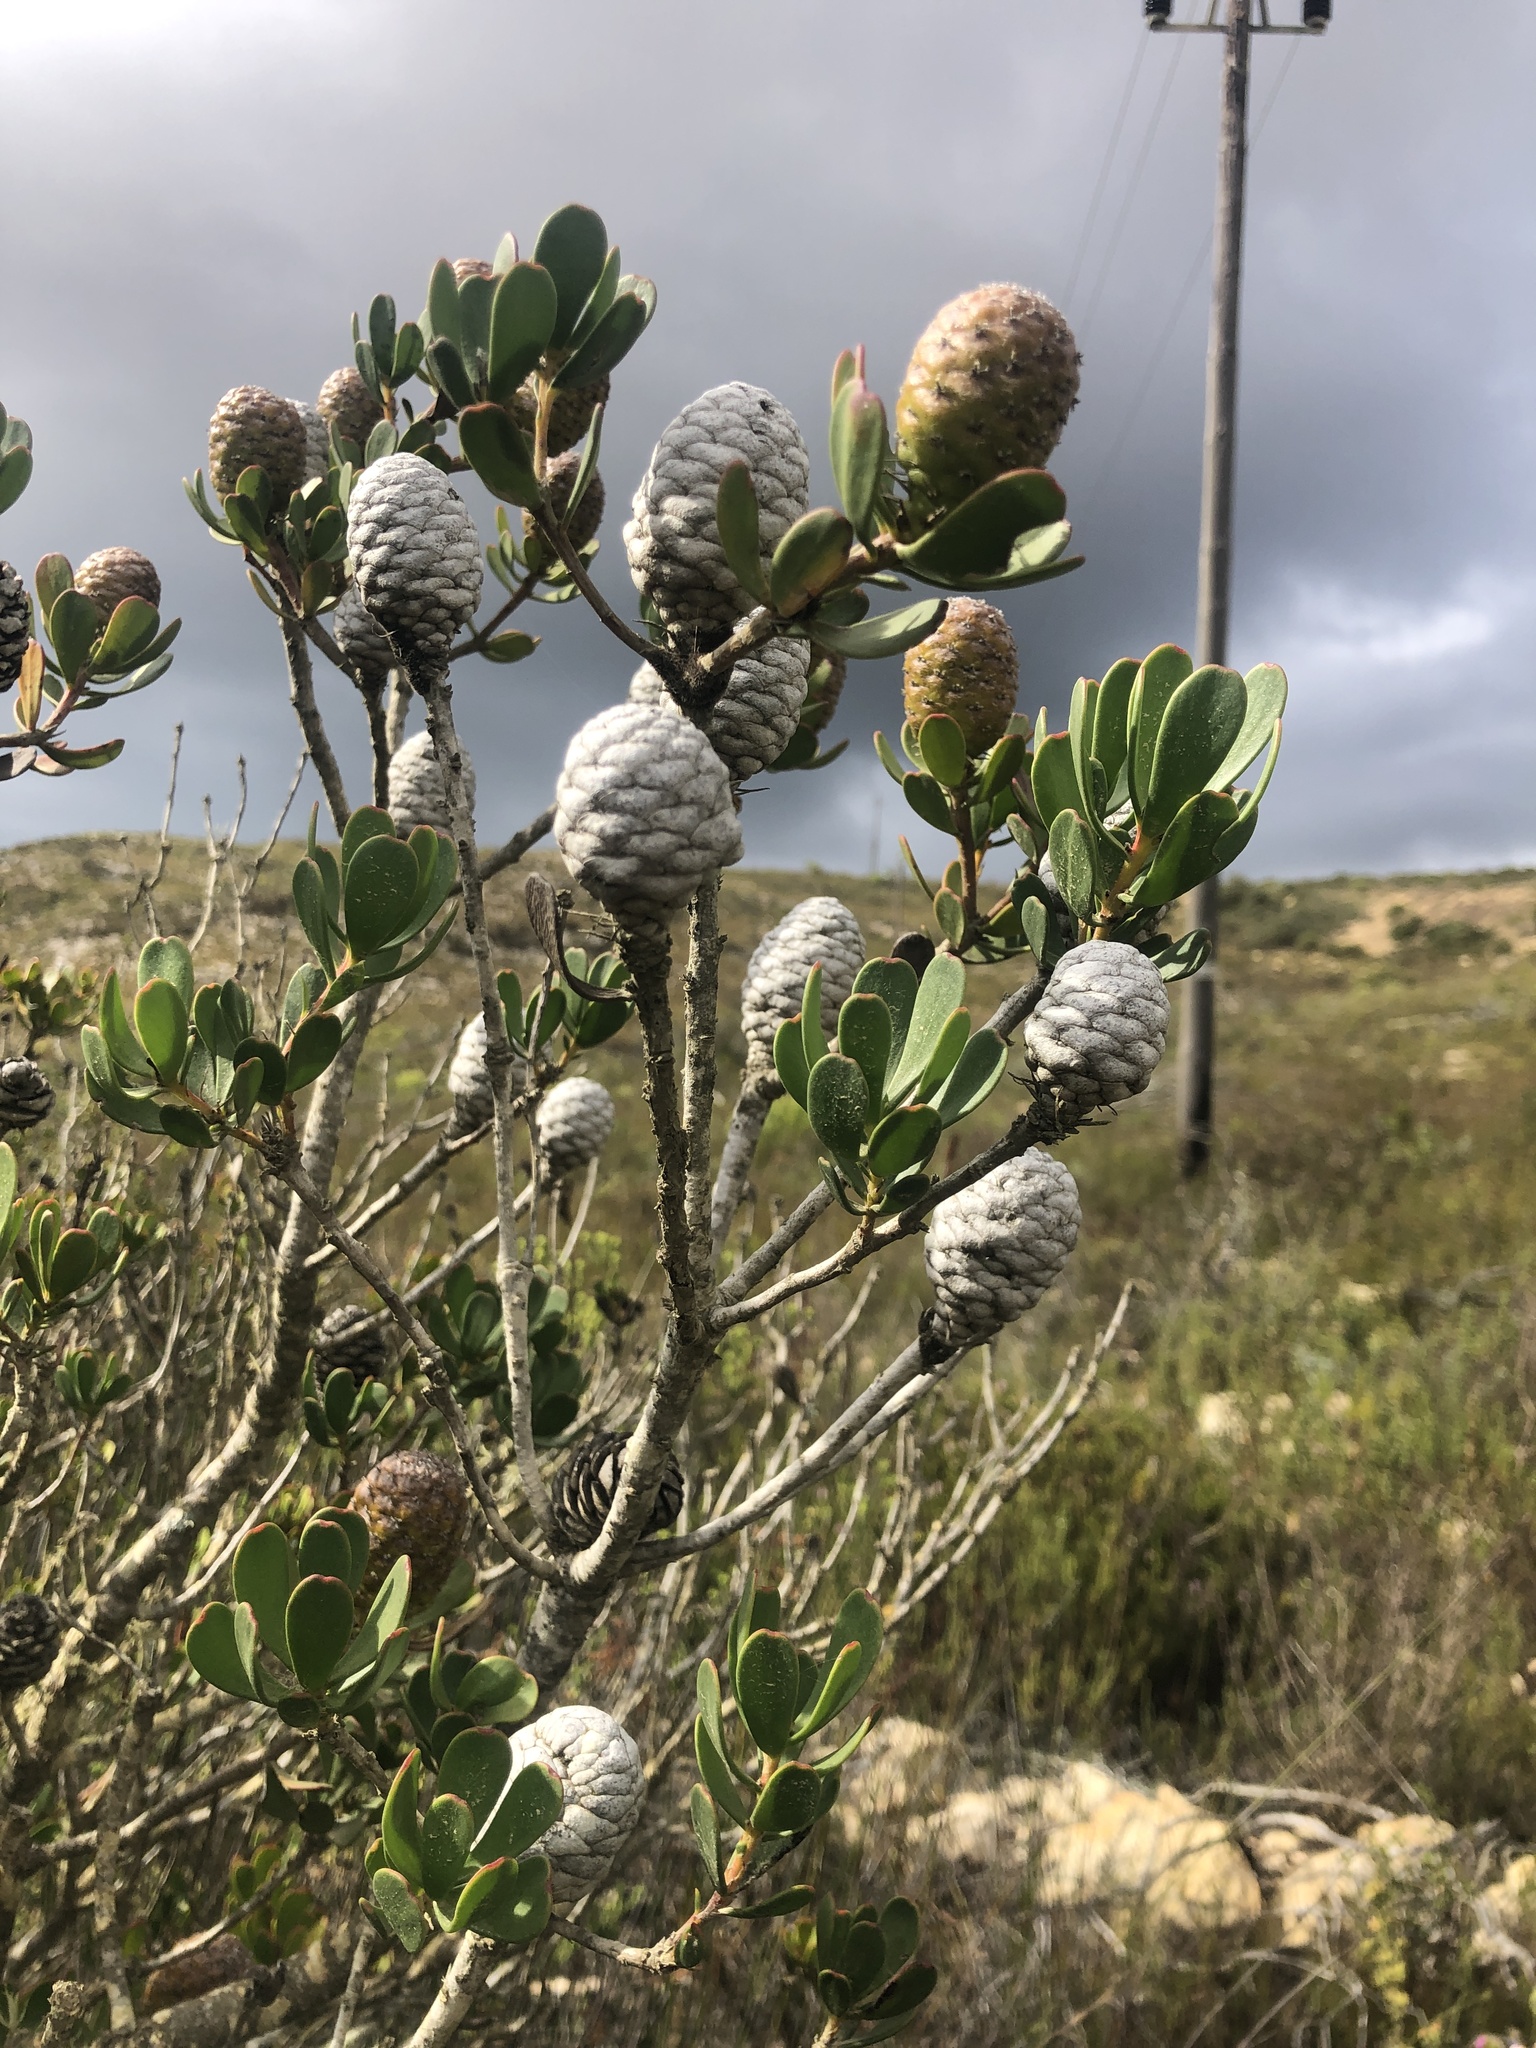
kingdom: Plantae
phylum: Tracheophyta
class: Magnoliopsida
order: Proteales
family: Proteaceae
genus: Leucadendron
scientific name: Leucadendron muirii
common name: Silver-ball conebush
